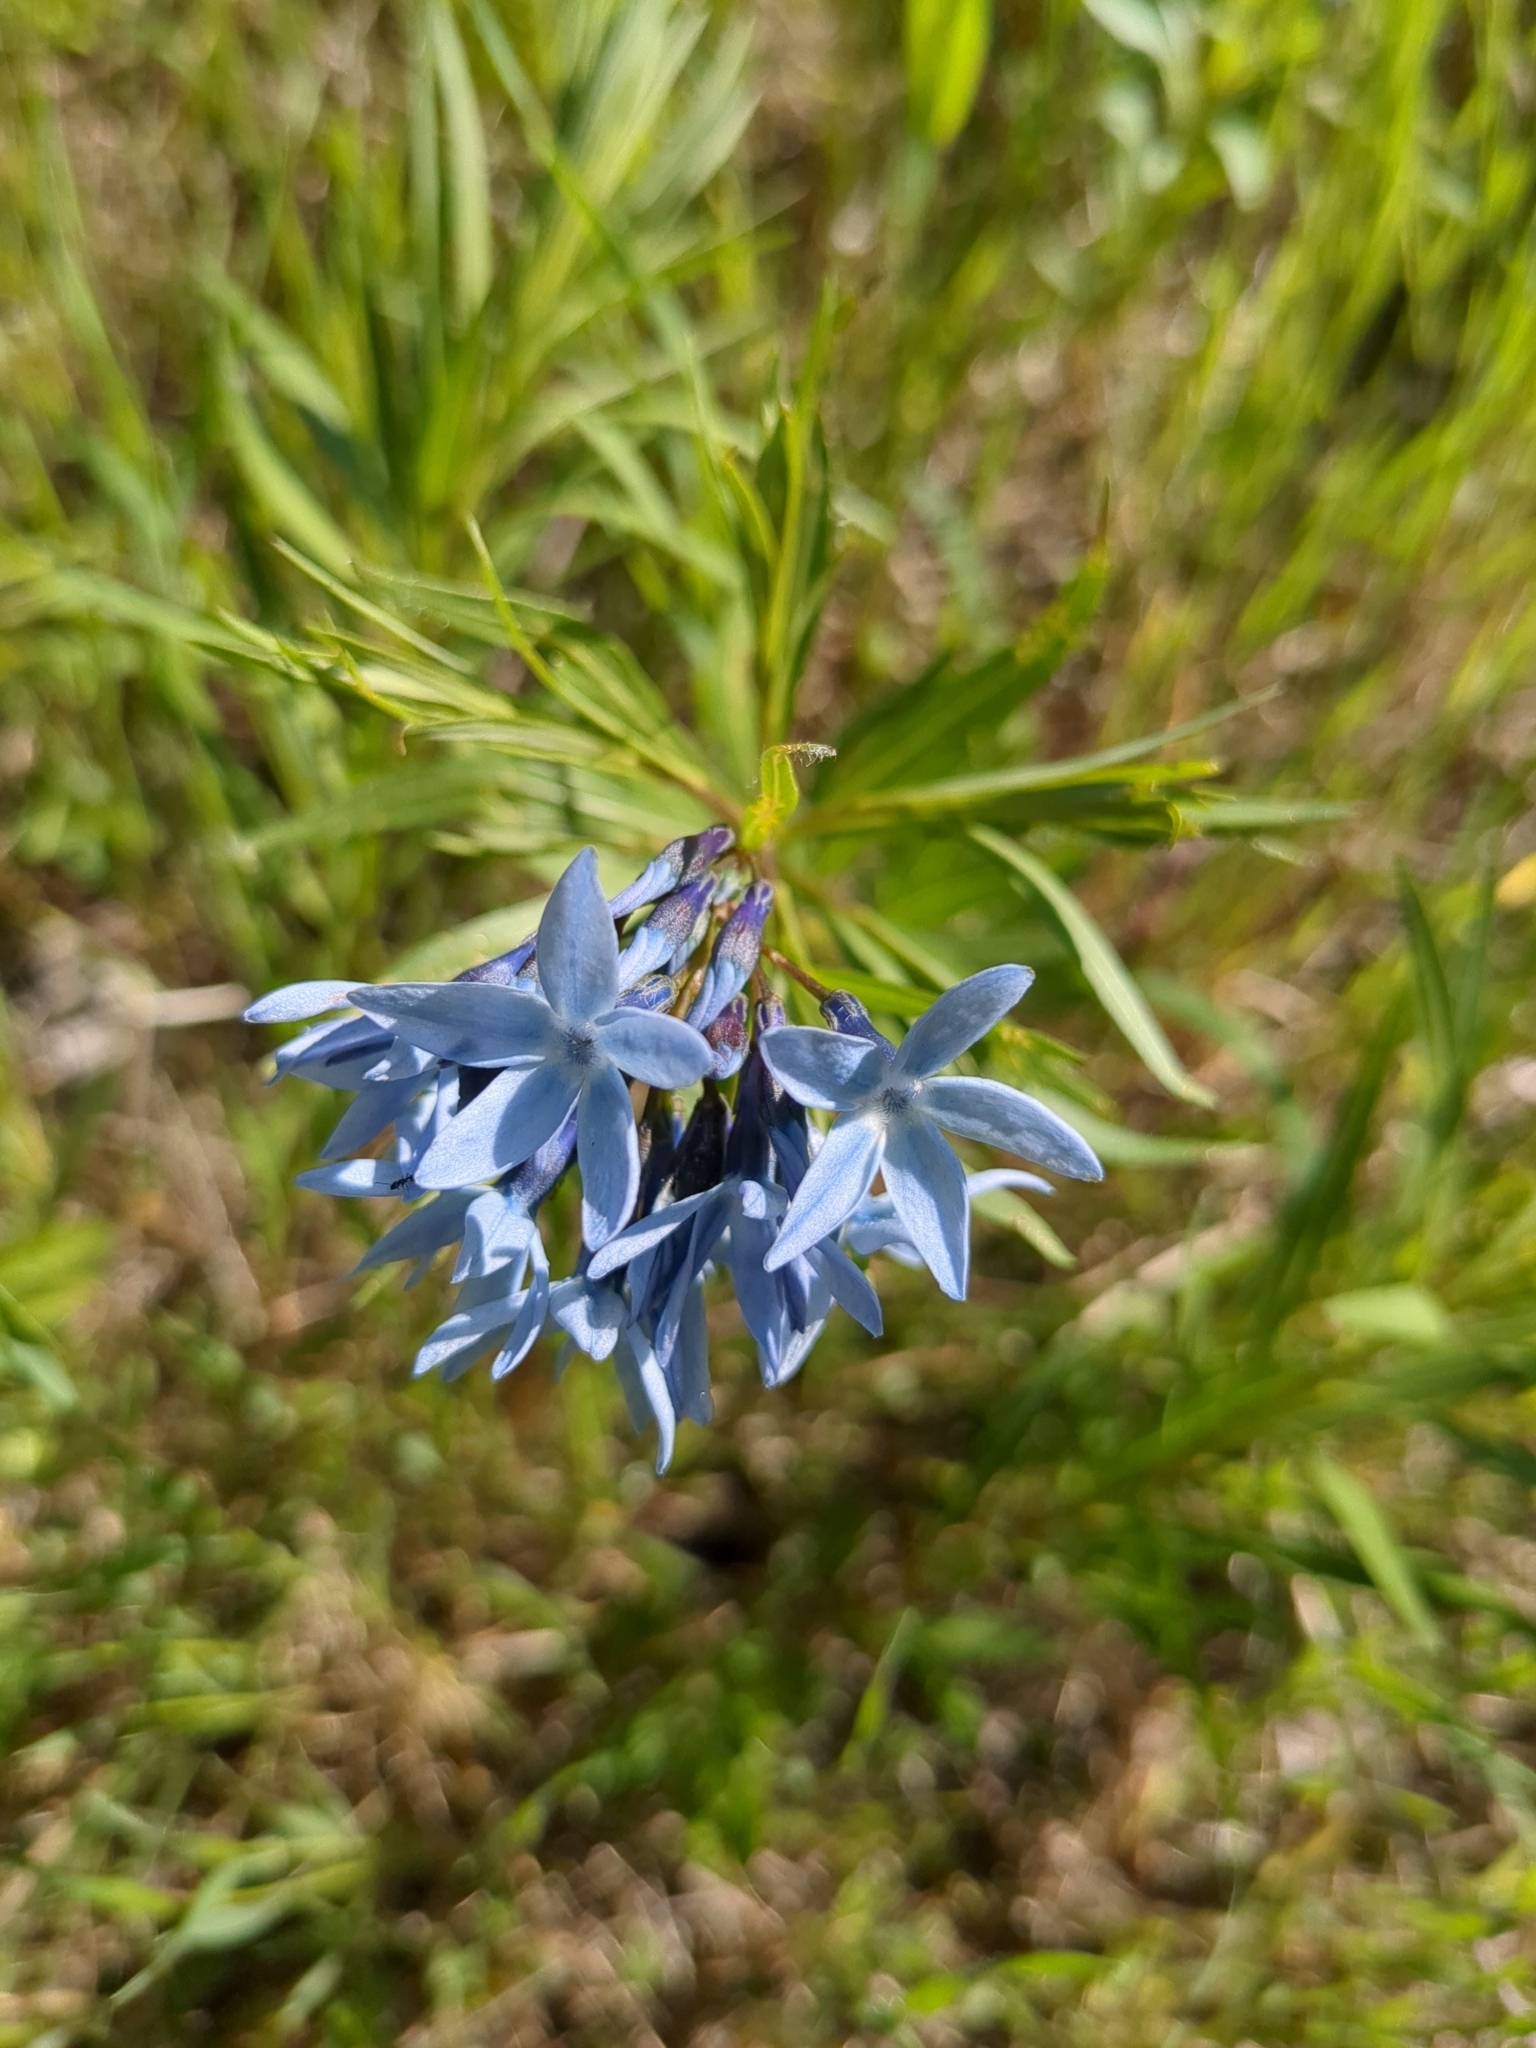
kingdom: Plantae
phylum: Tracheophyta
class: Magnoliopsida
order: Gentianales
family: Apocynaceae
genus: Amsonia
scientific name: Amsonia ciliata
